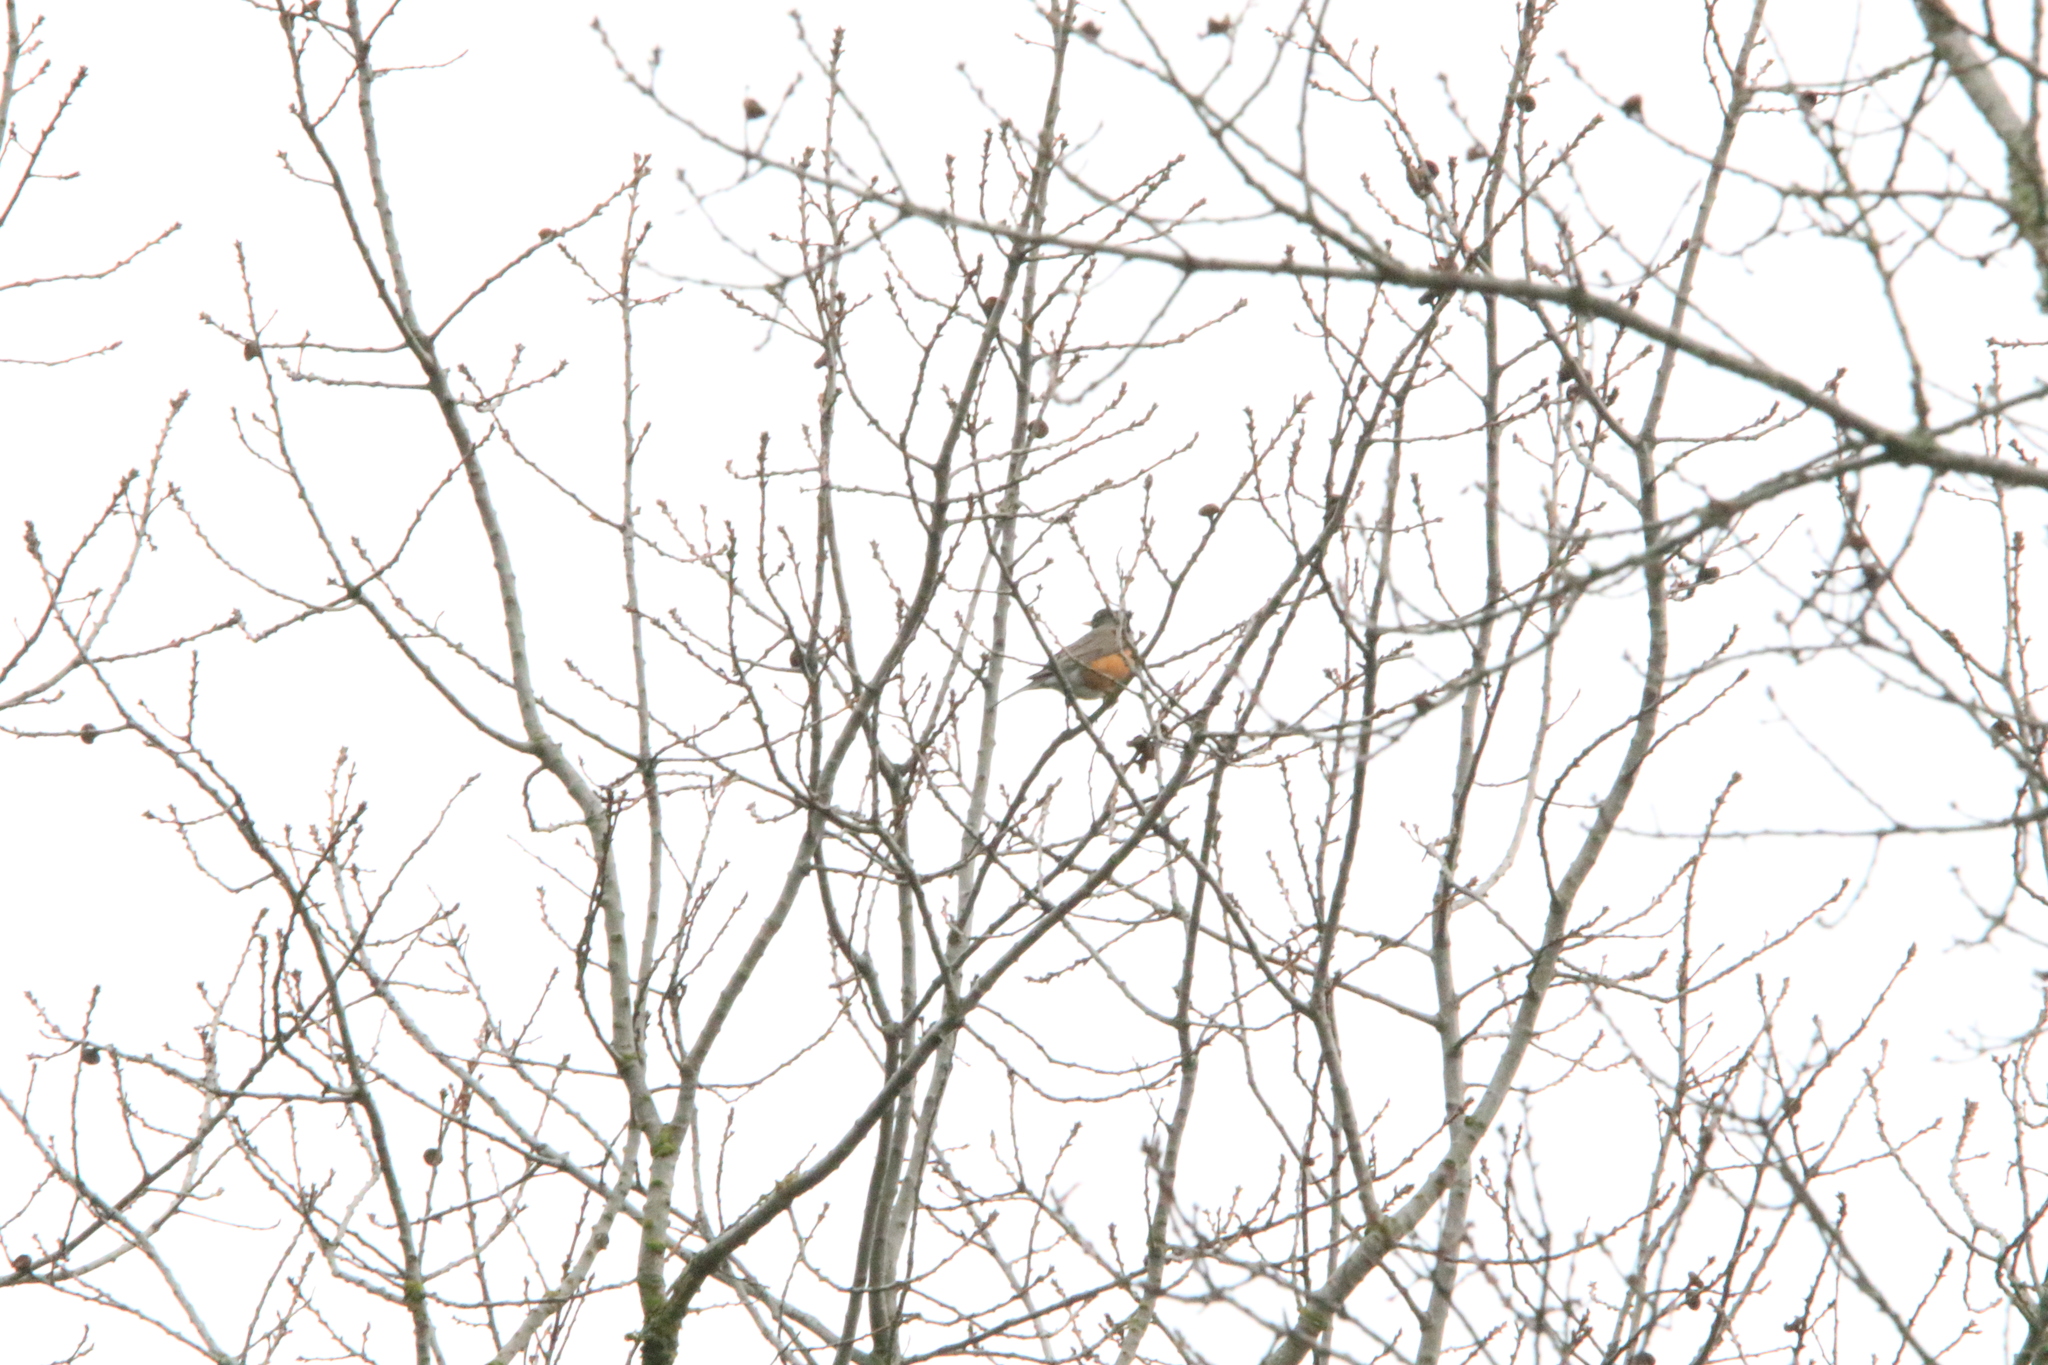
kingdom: Animalia
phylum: Chordata
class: Aves
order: Passeriformes
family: Turdidae
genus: Turdus
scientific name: Turdus migratorius
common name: American robin
